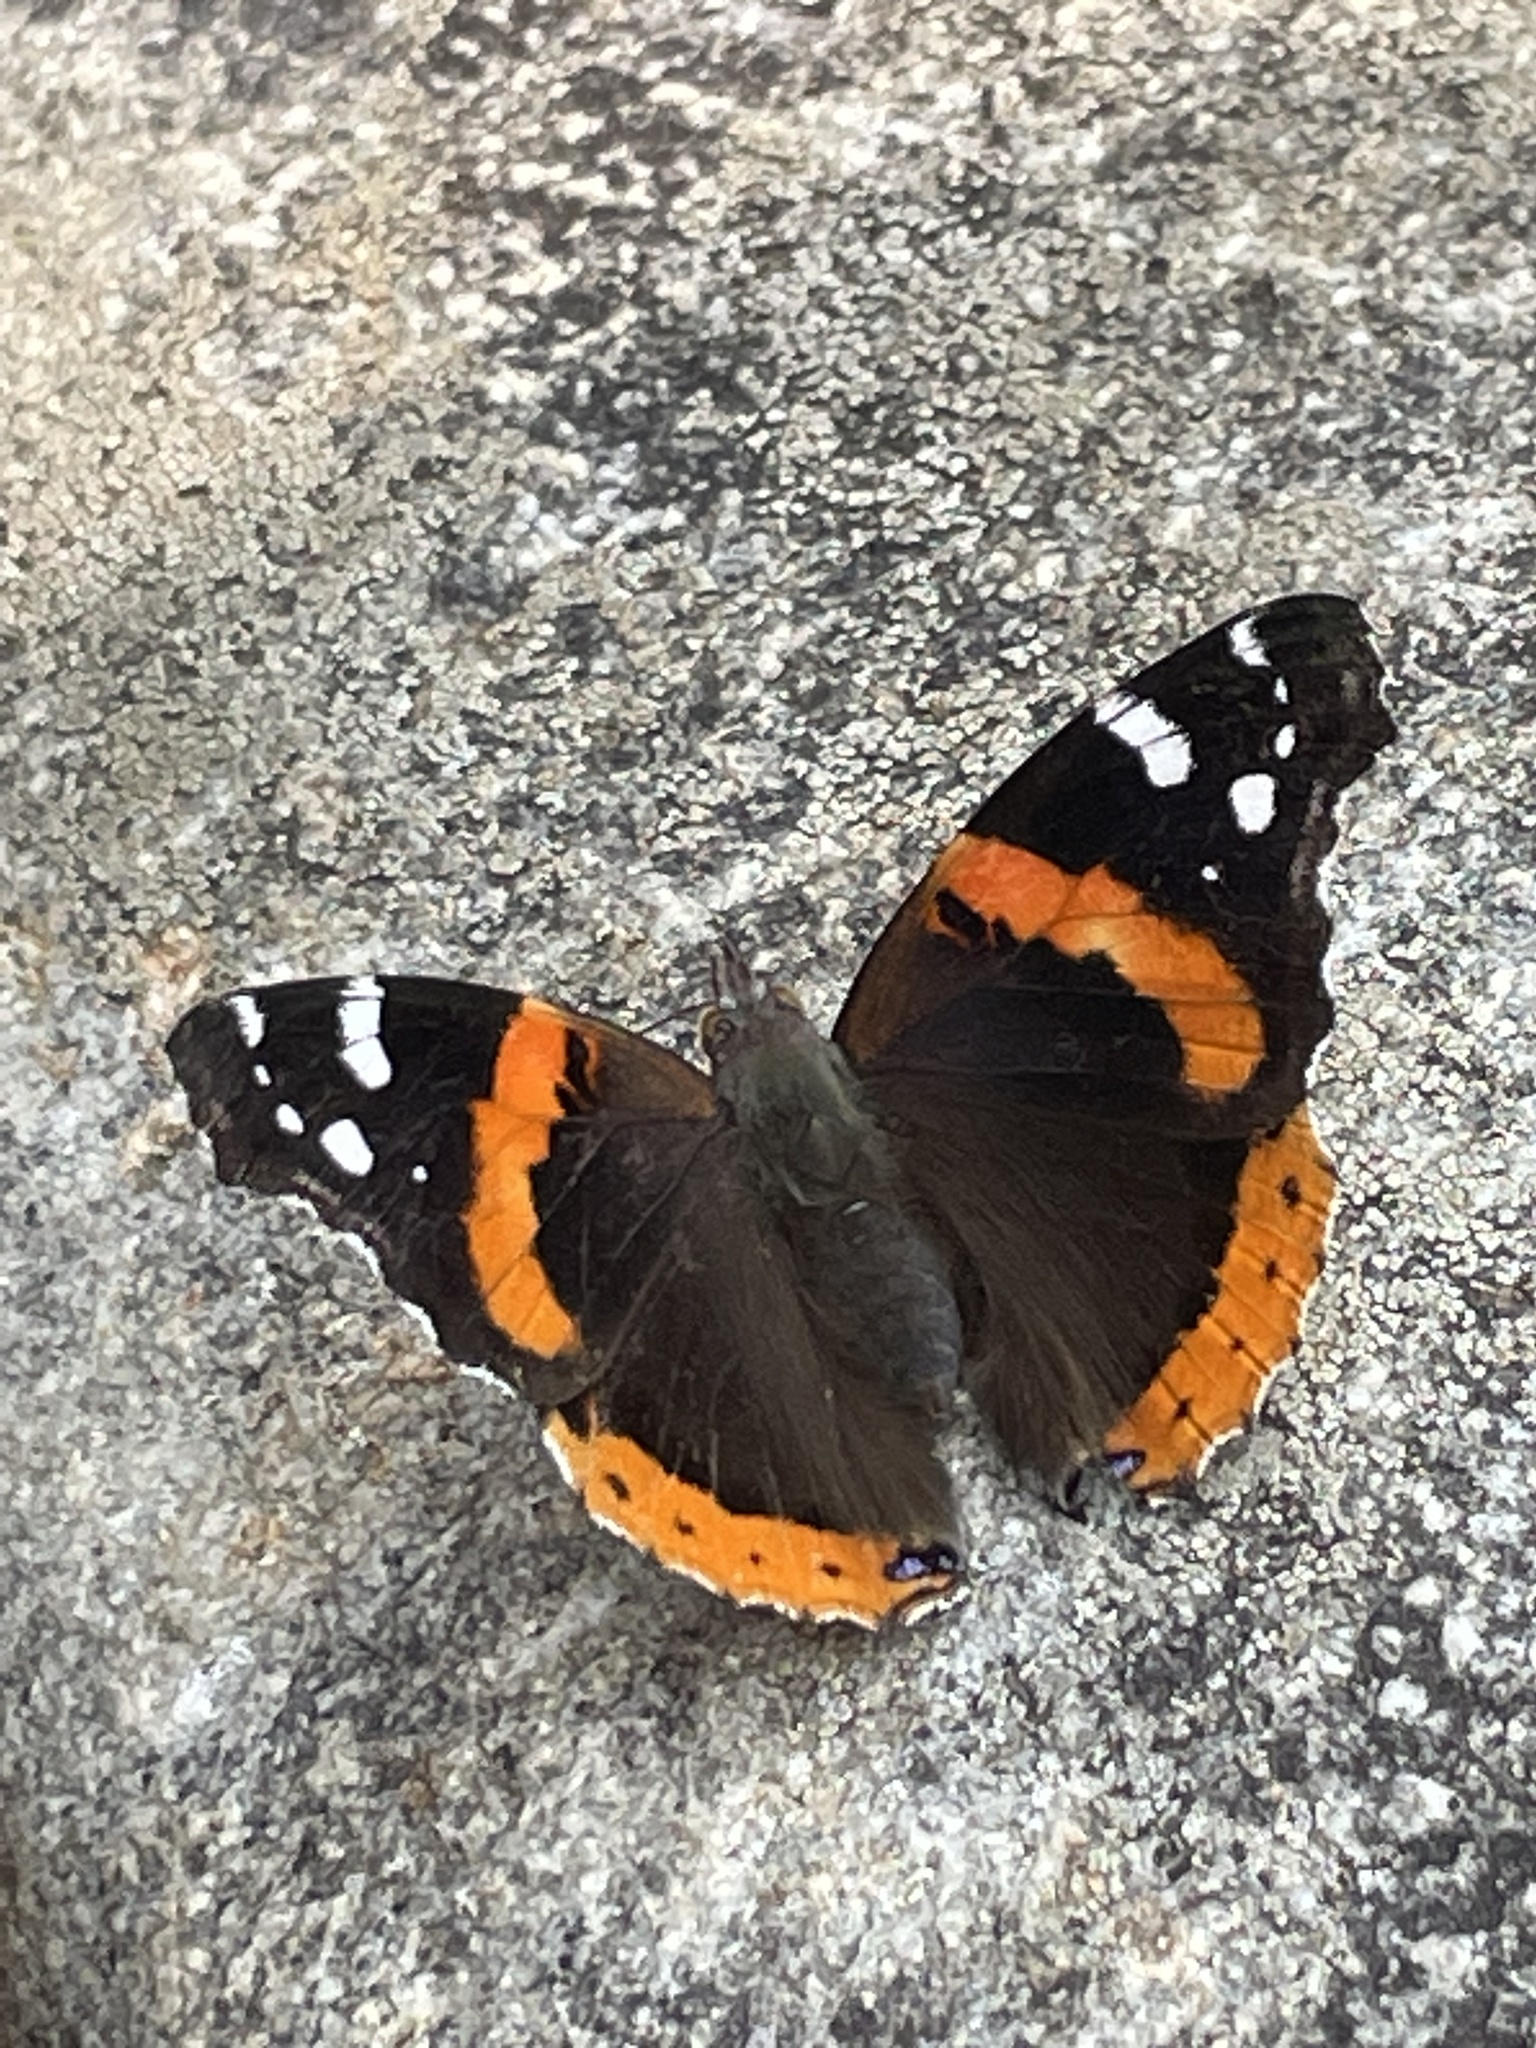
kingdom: Animalia
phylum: Arthropoda
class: Insecta
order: Lepidoptera
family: Nymphalidae
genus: Vanessa
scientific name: Vanessa atalanta
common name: Red admiral
